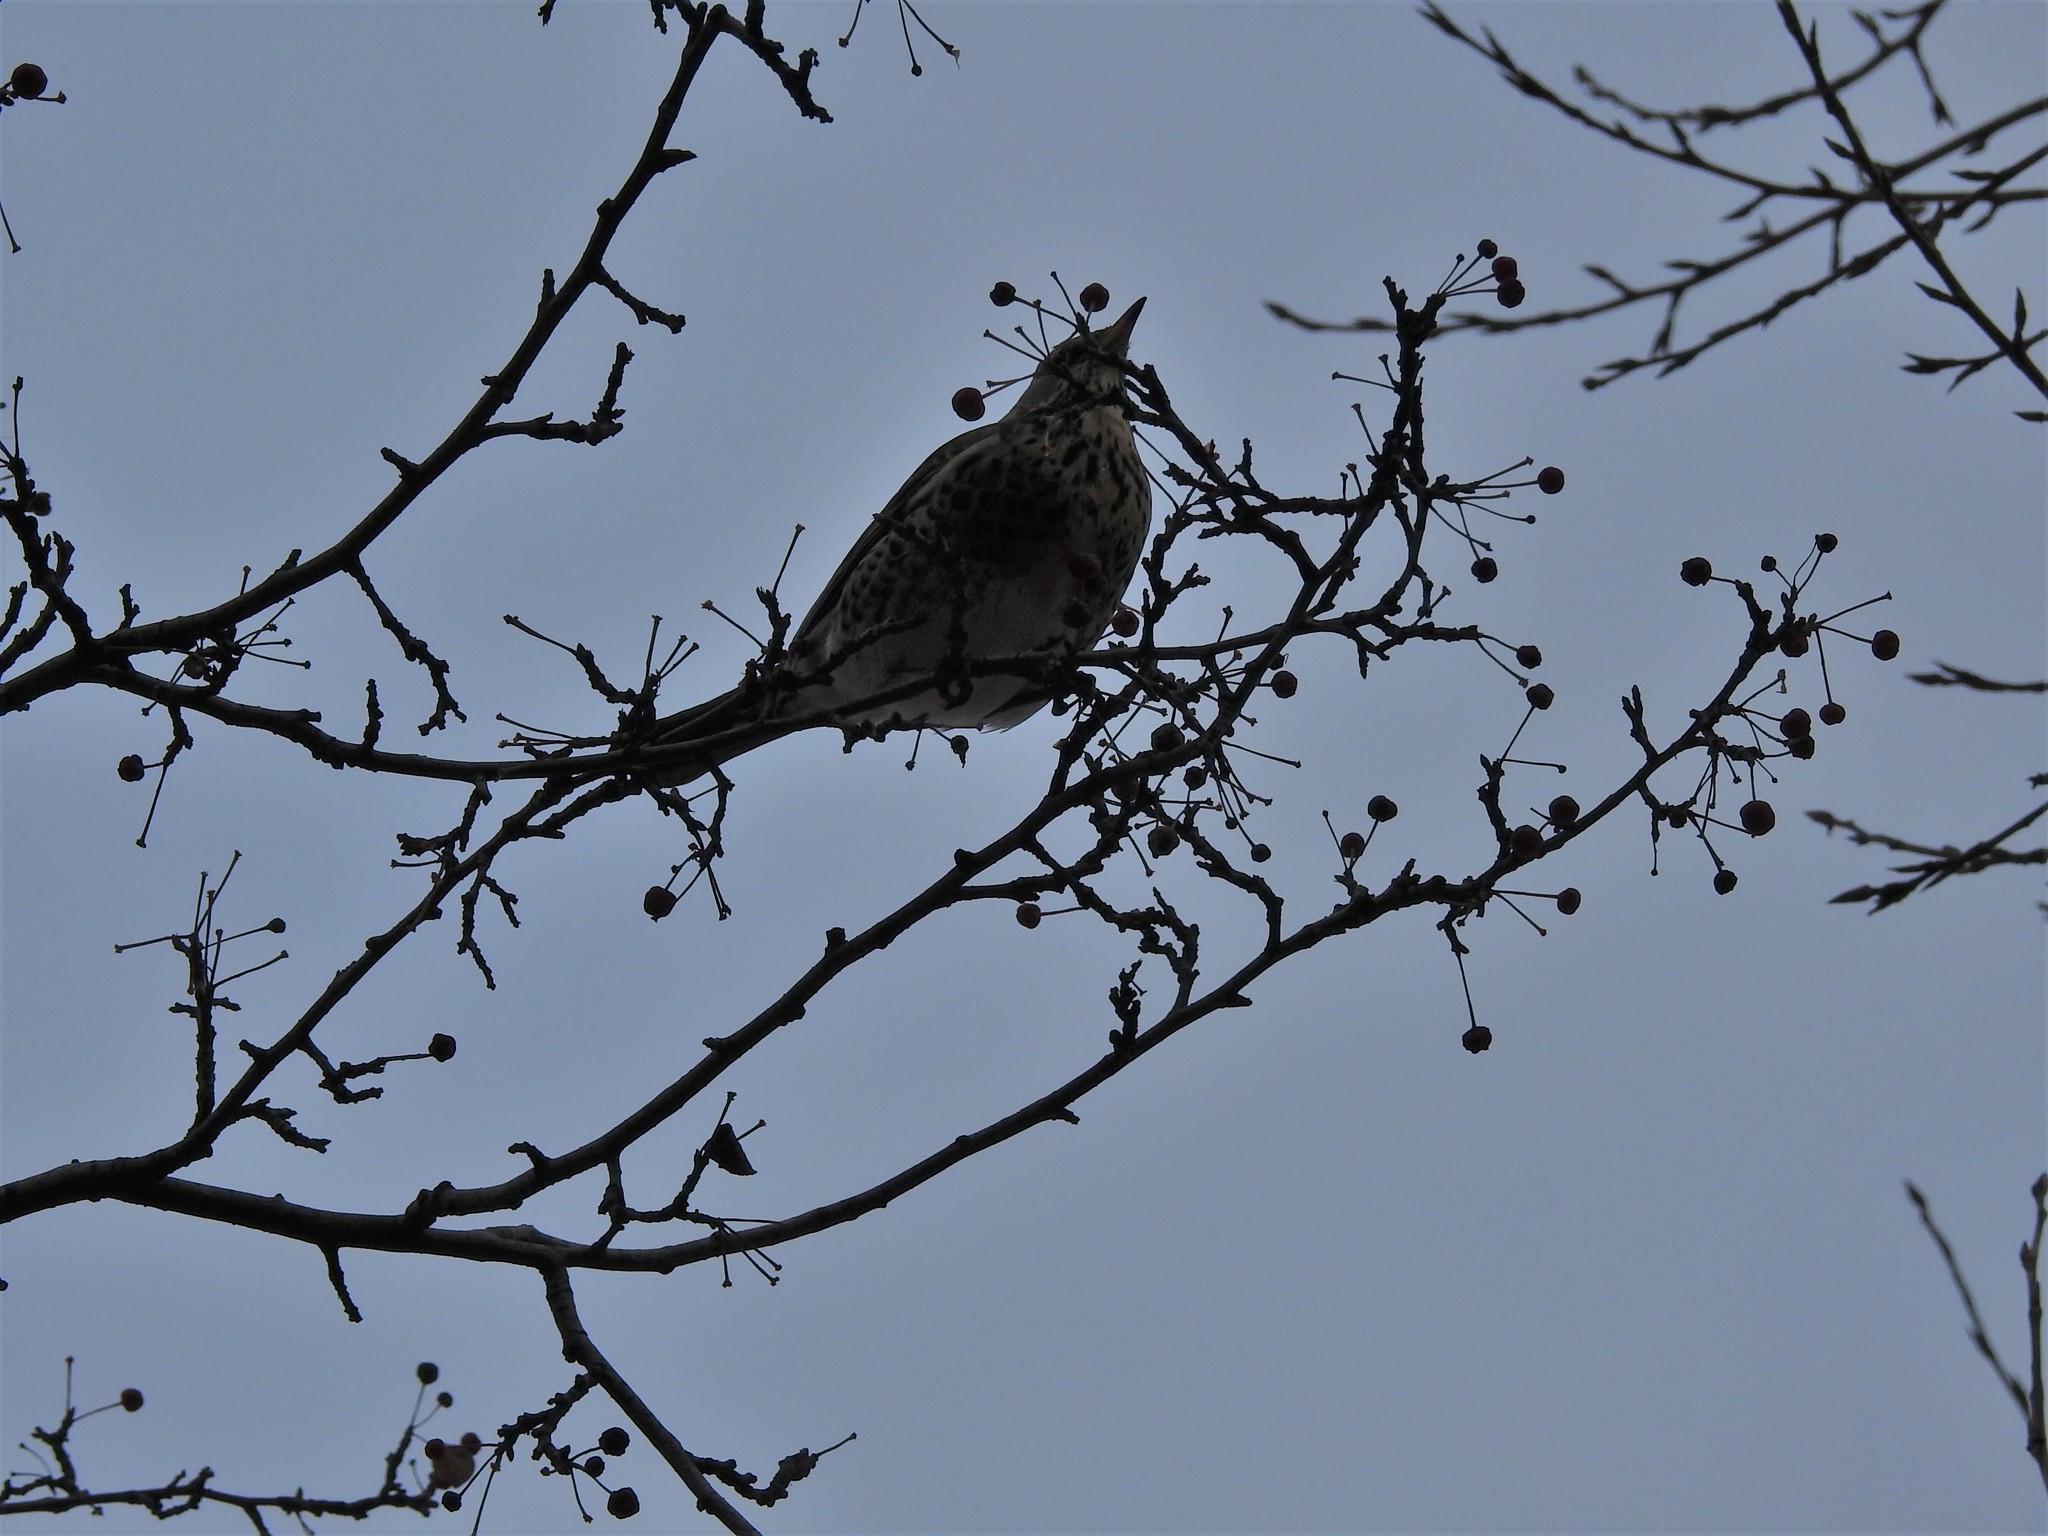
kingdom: Animalia
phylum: Chordata
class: Aves
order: Passeriformes
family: Turdidae
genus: Turdus
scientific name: Turdus pilaris
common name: Fieldfare
